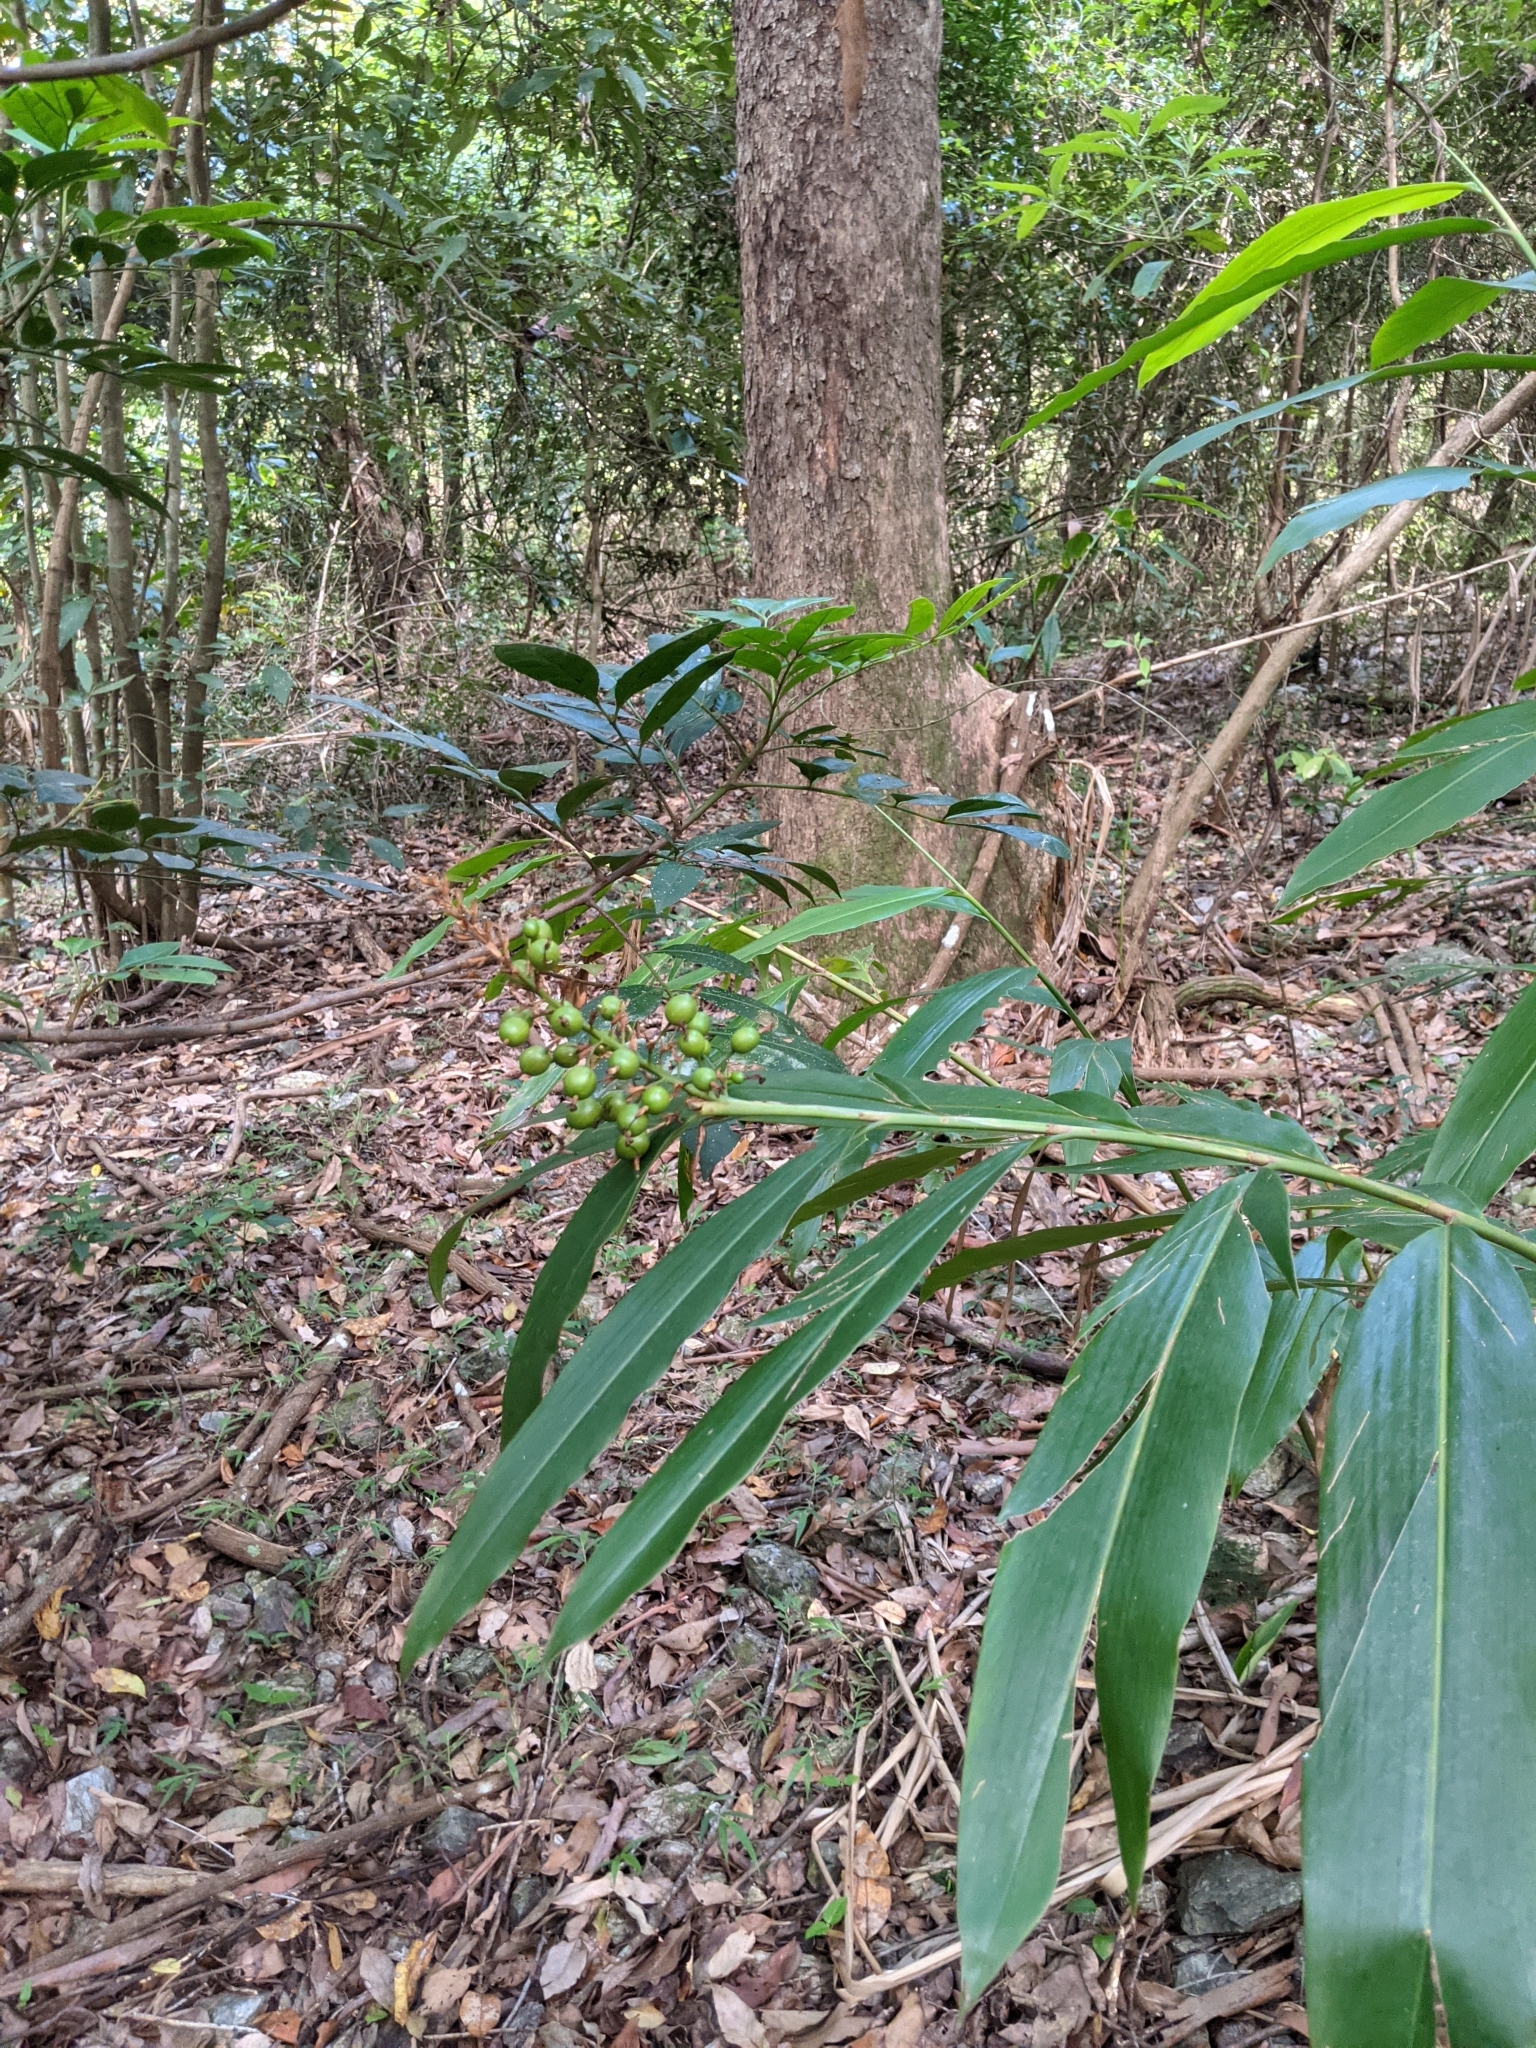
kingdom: Plantae
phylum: Tracheophyta
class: Liliopsida
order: Zingiberales
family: Zingiberaceae
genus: Alpinia
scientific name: Alpinia caerulea
